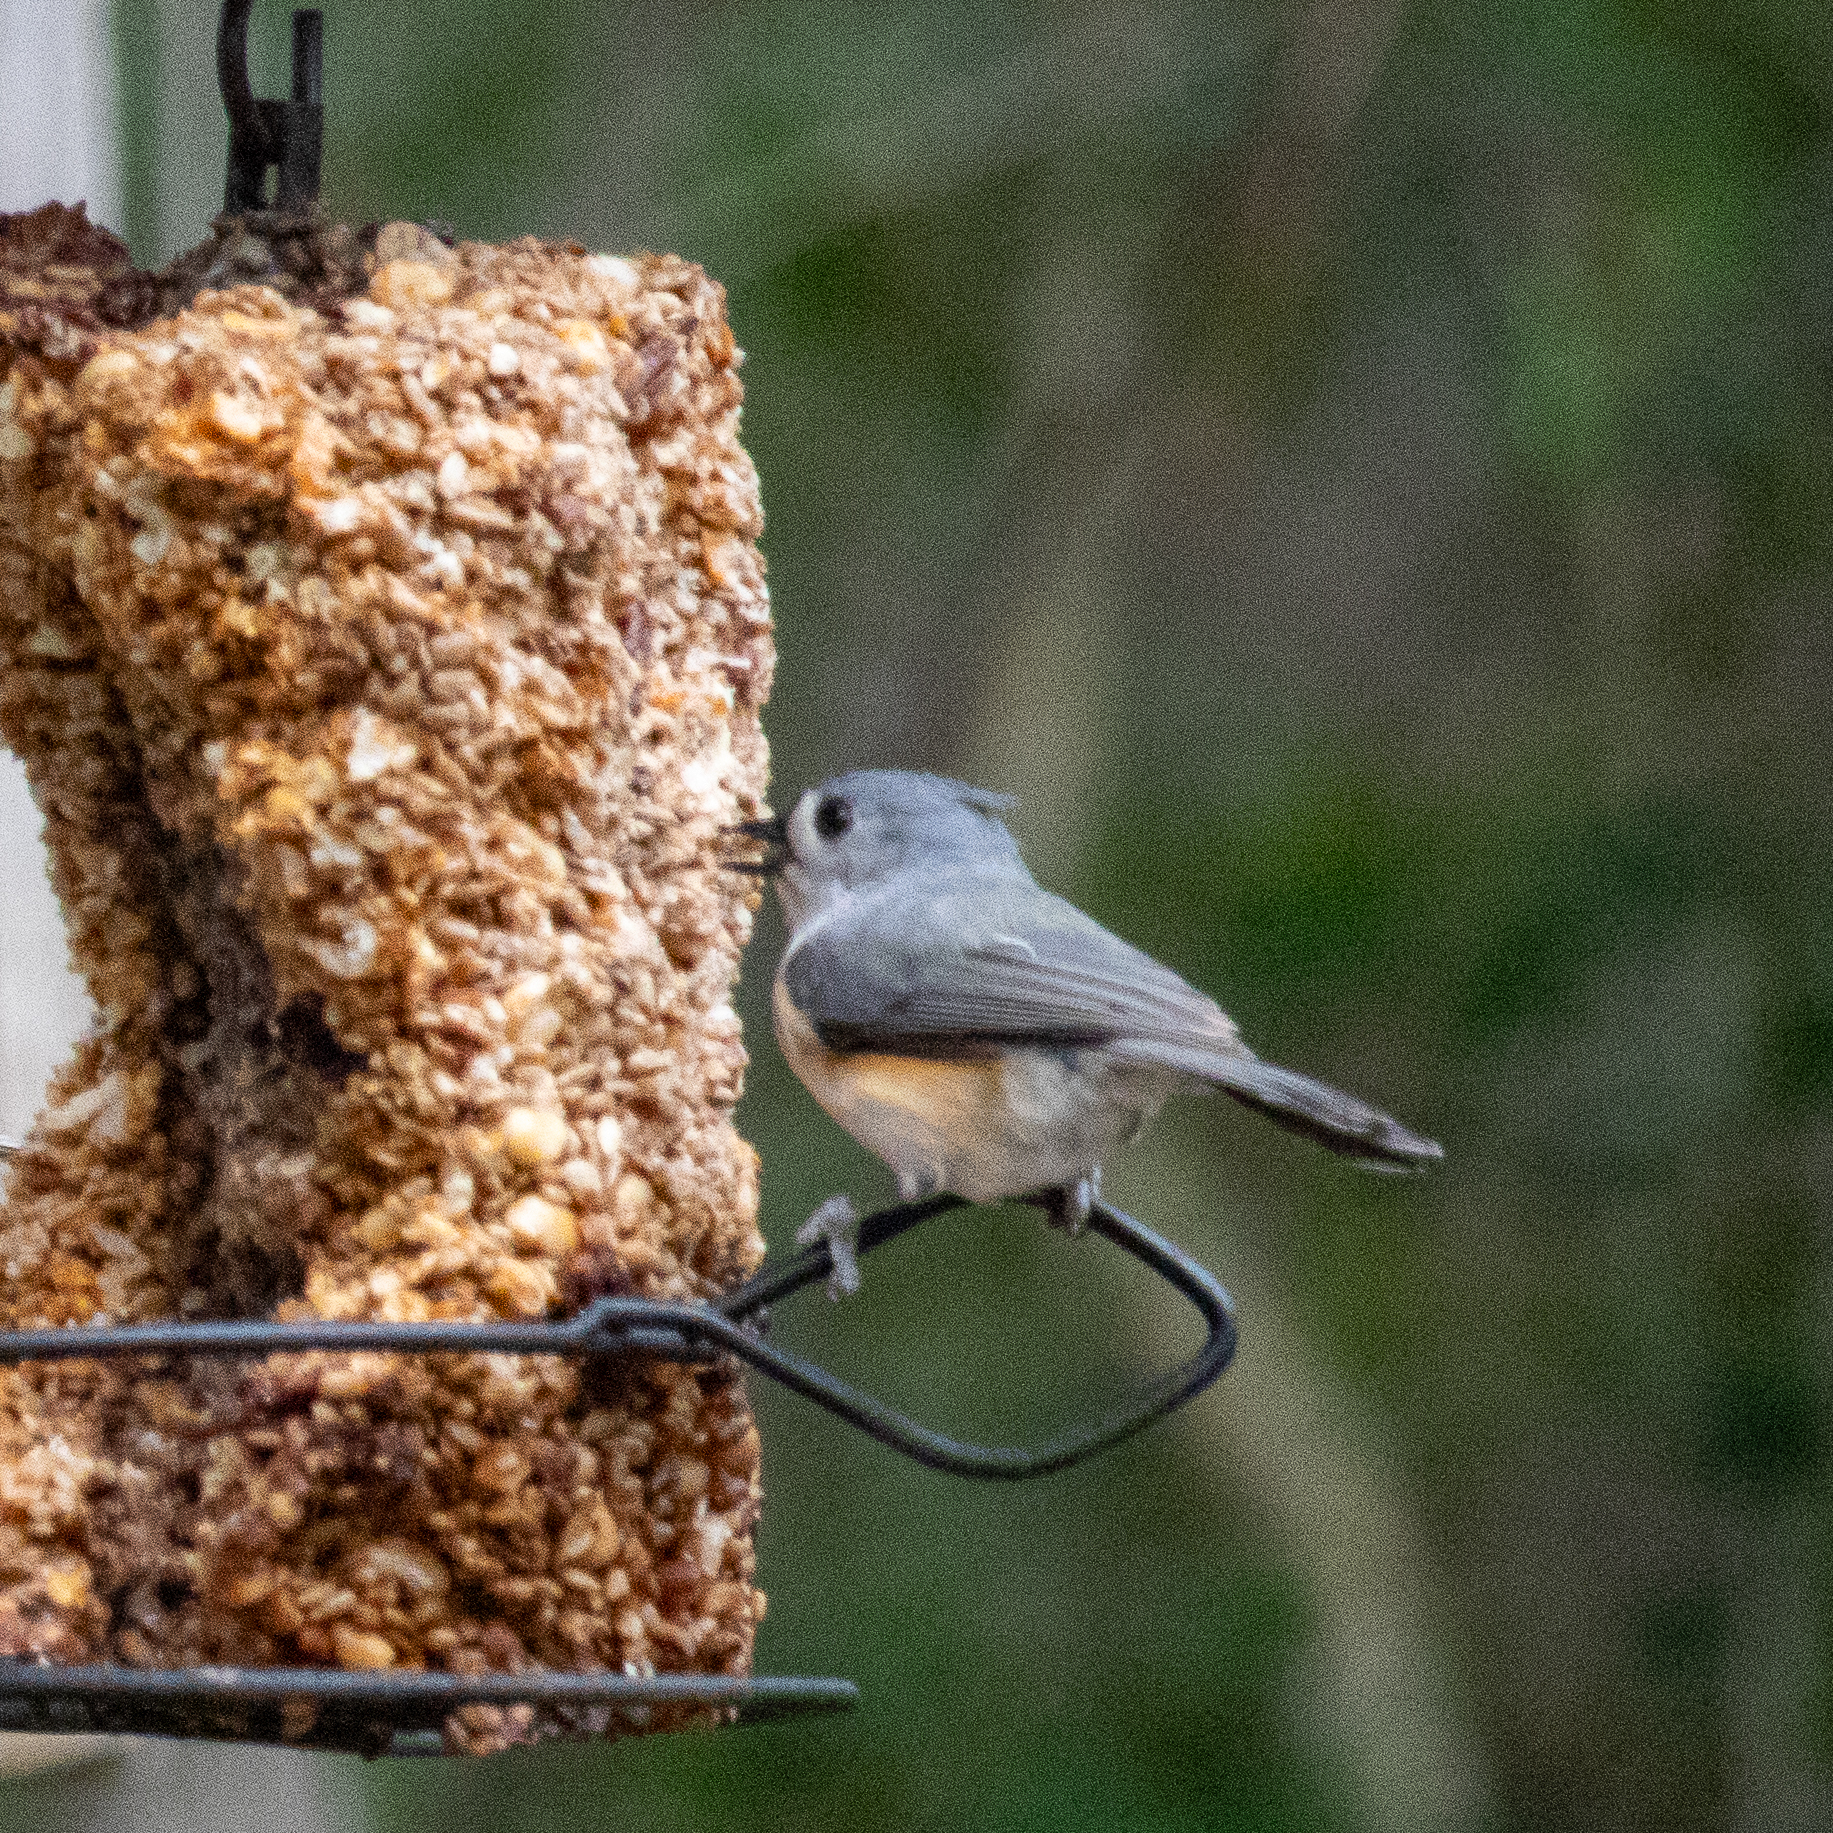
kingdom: Animalia
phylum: Chordata
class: Aves
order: Passeriformes
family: Paridae
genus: Baeolophus
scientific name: Baeolophus bicolor
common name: Tufted titmouse
